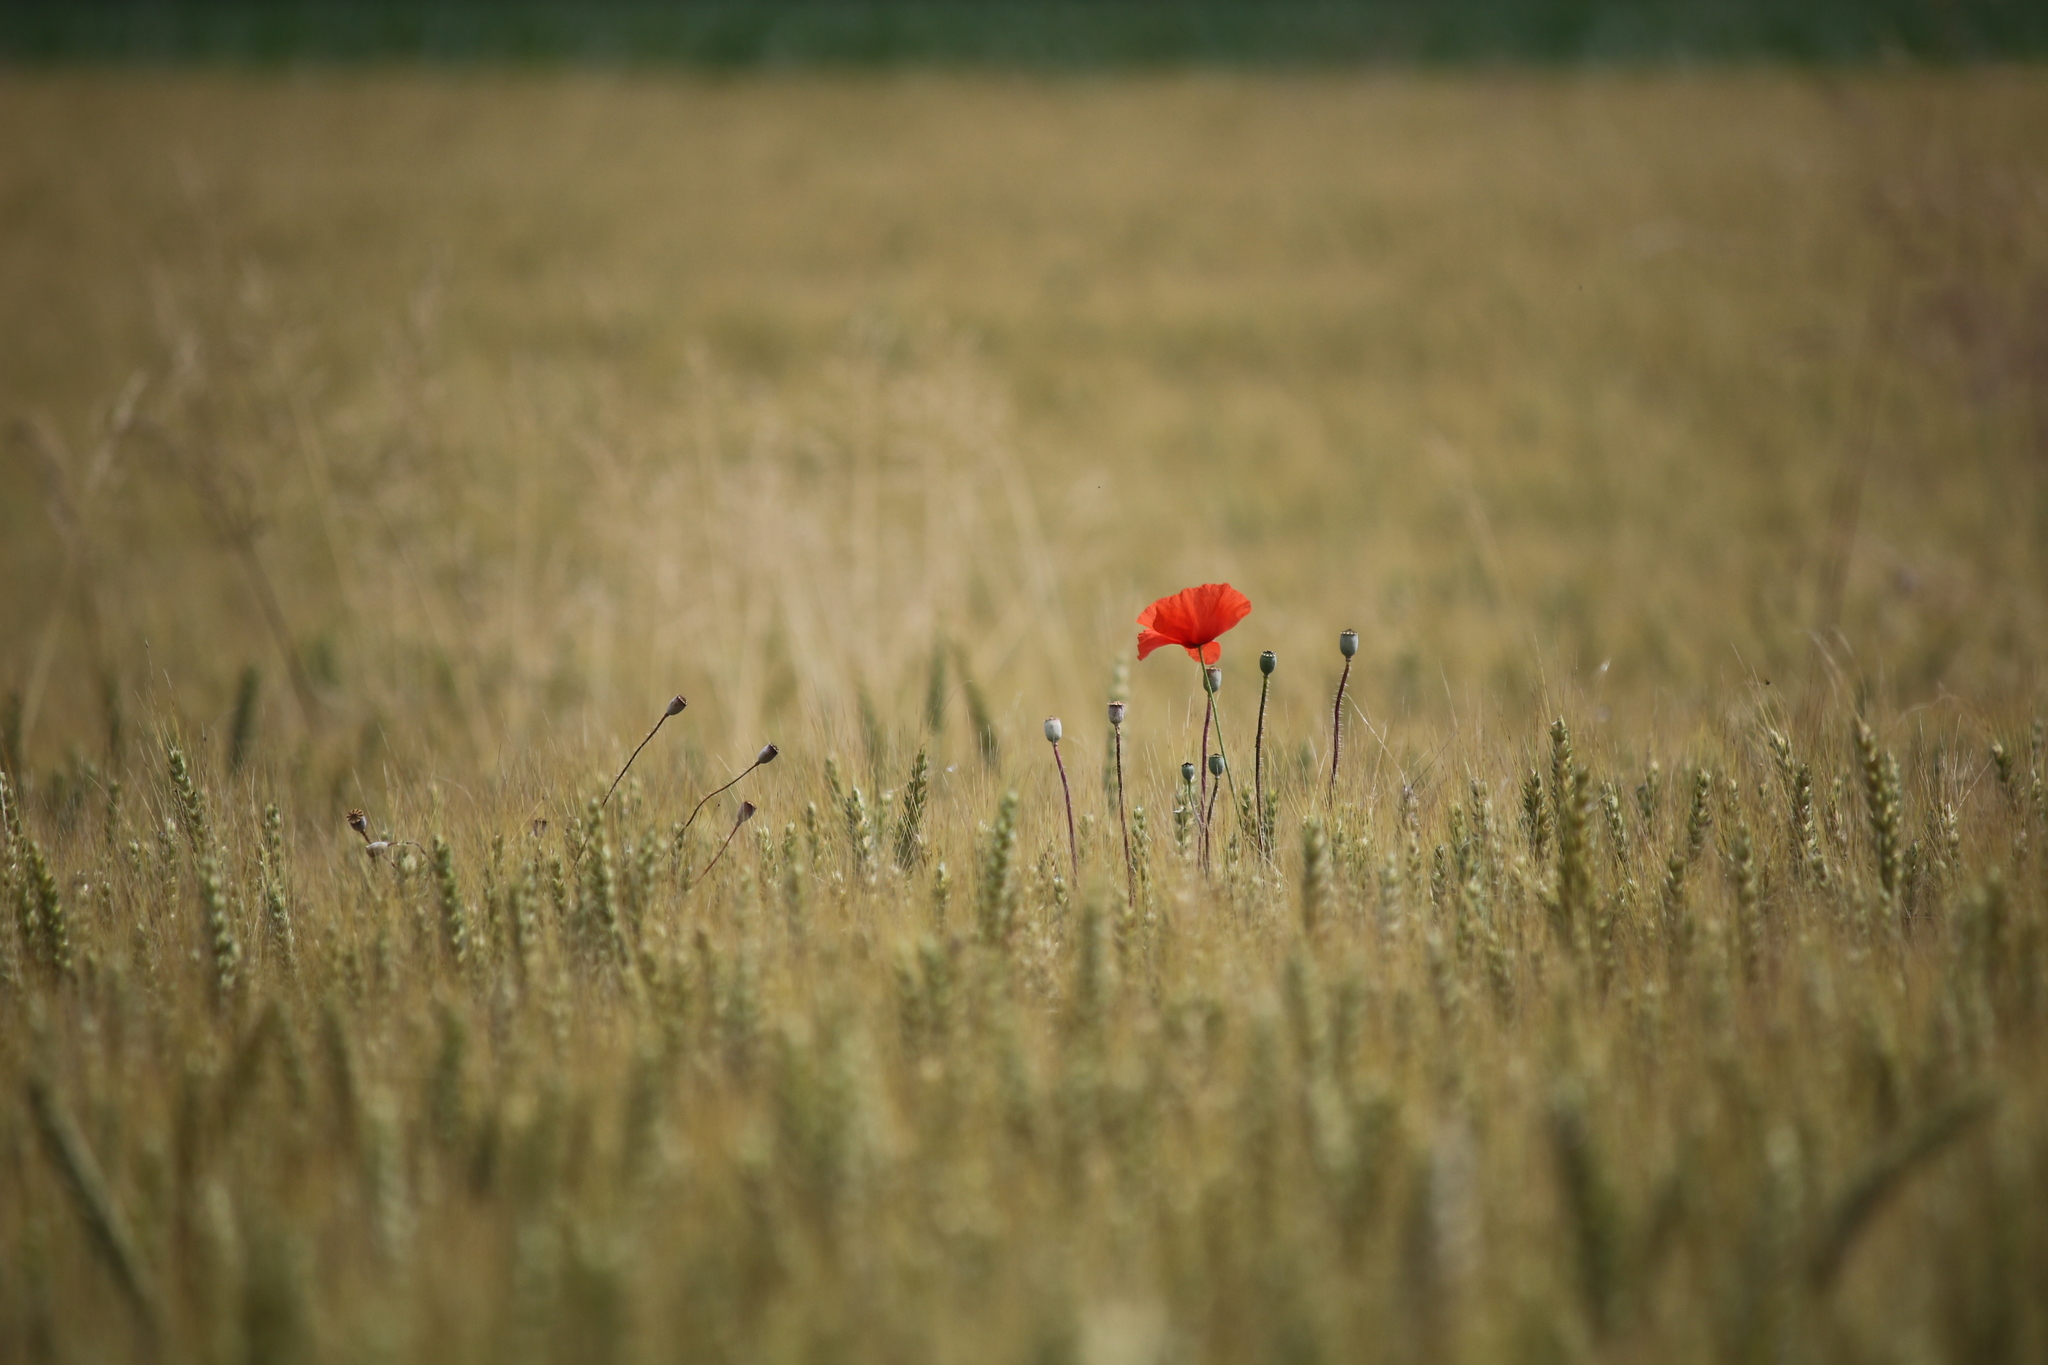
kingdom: Plantae
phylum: Tracheophyta
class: Magnoliopsida
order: Ranunculales
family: Papaveraceae
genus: Papaver
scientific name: Papaver rhoeas
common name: Corn poppy
